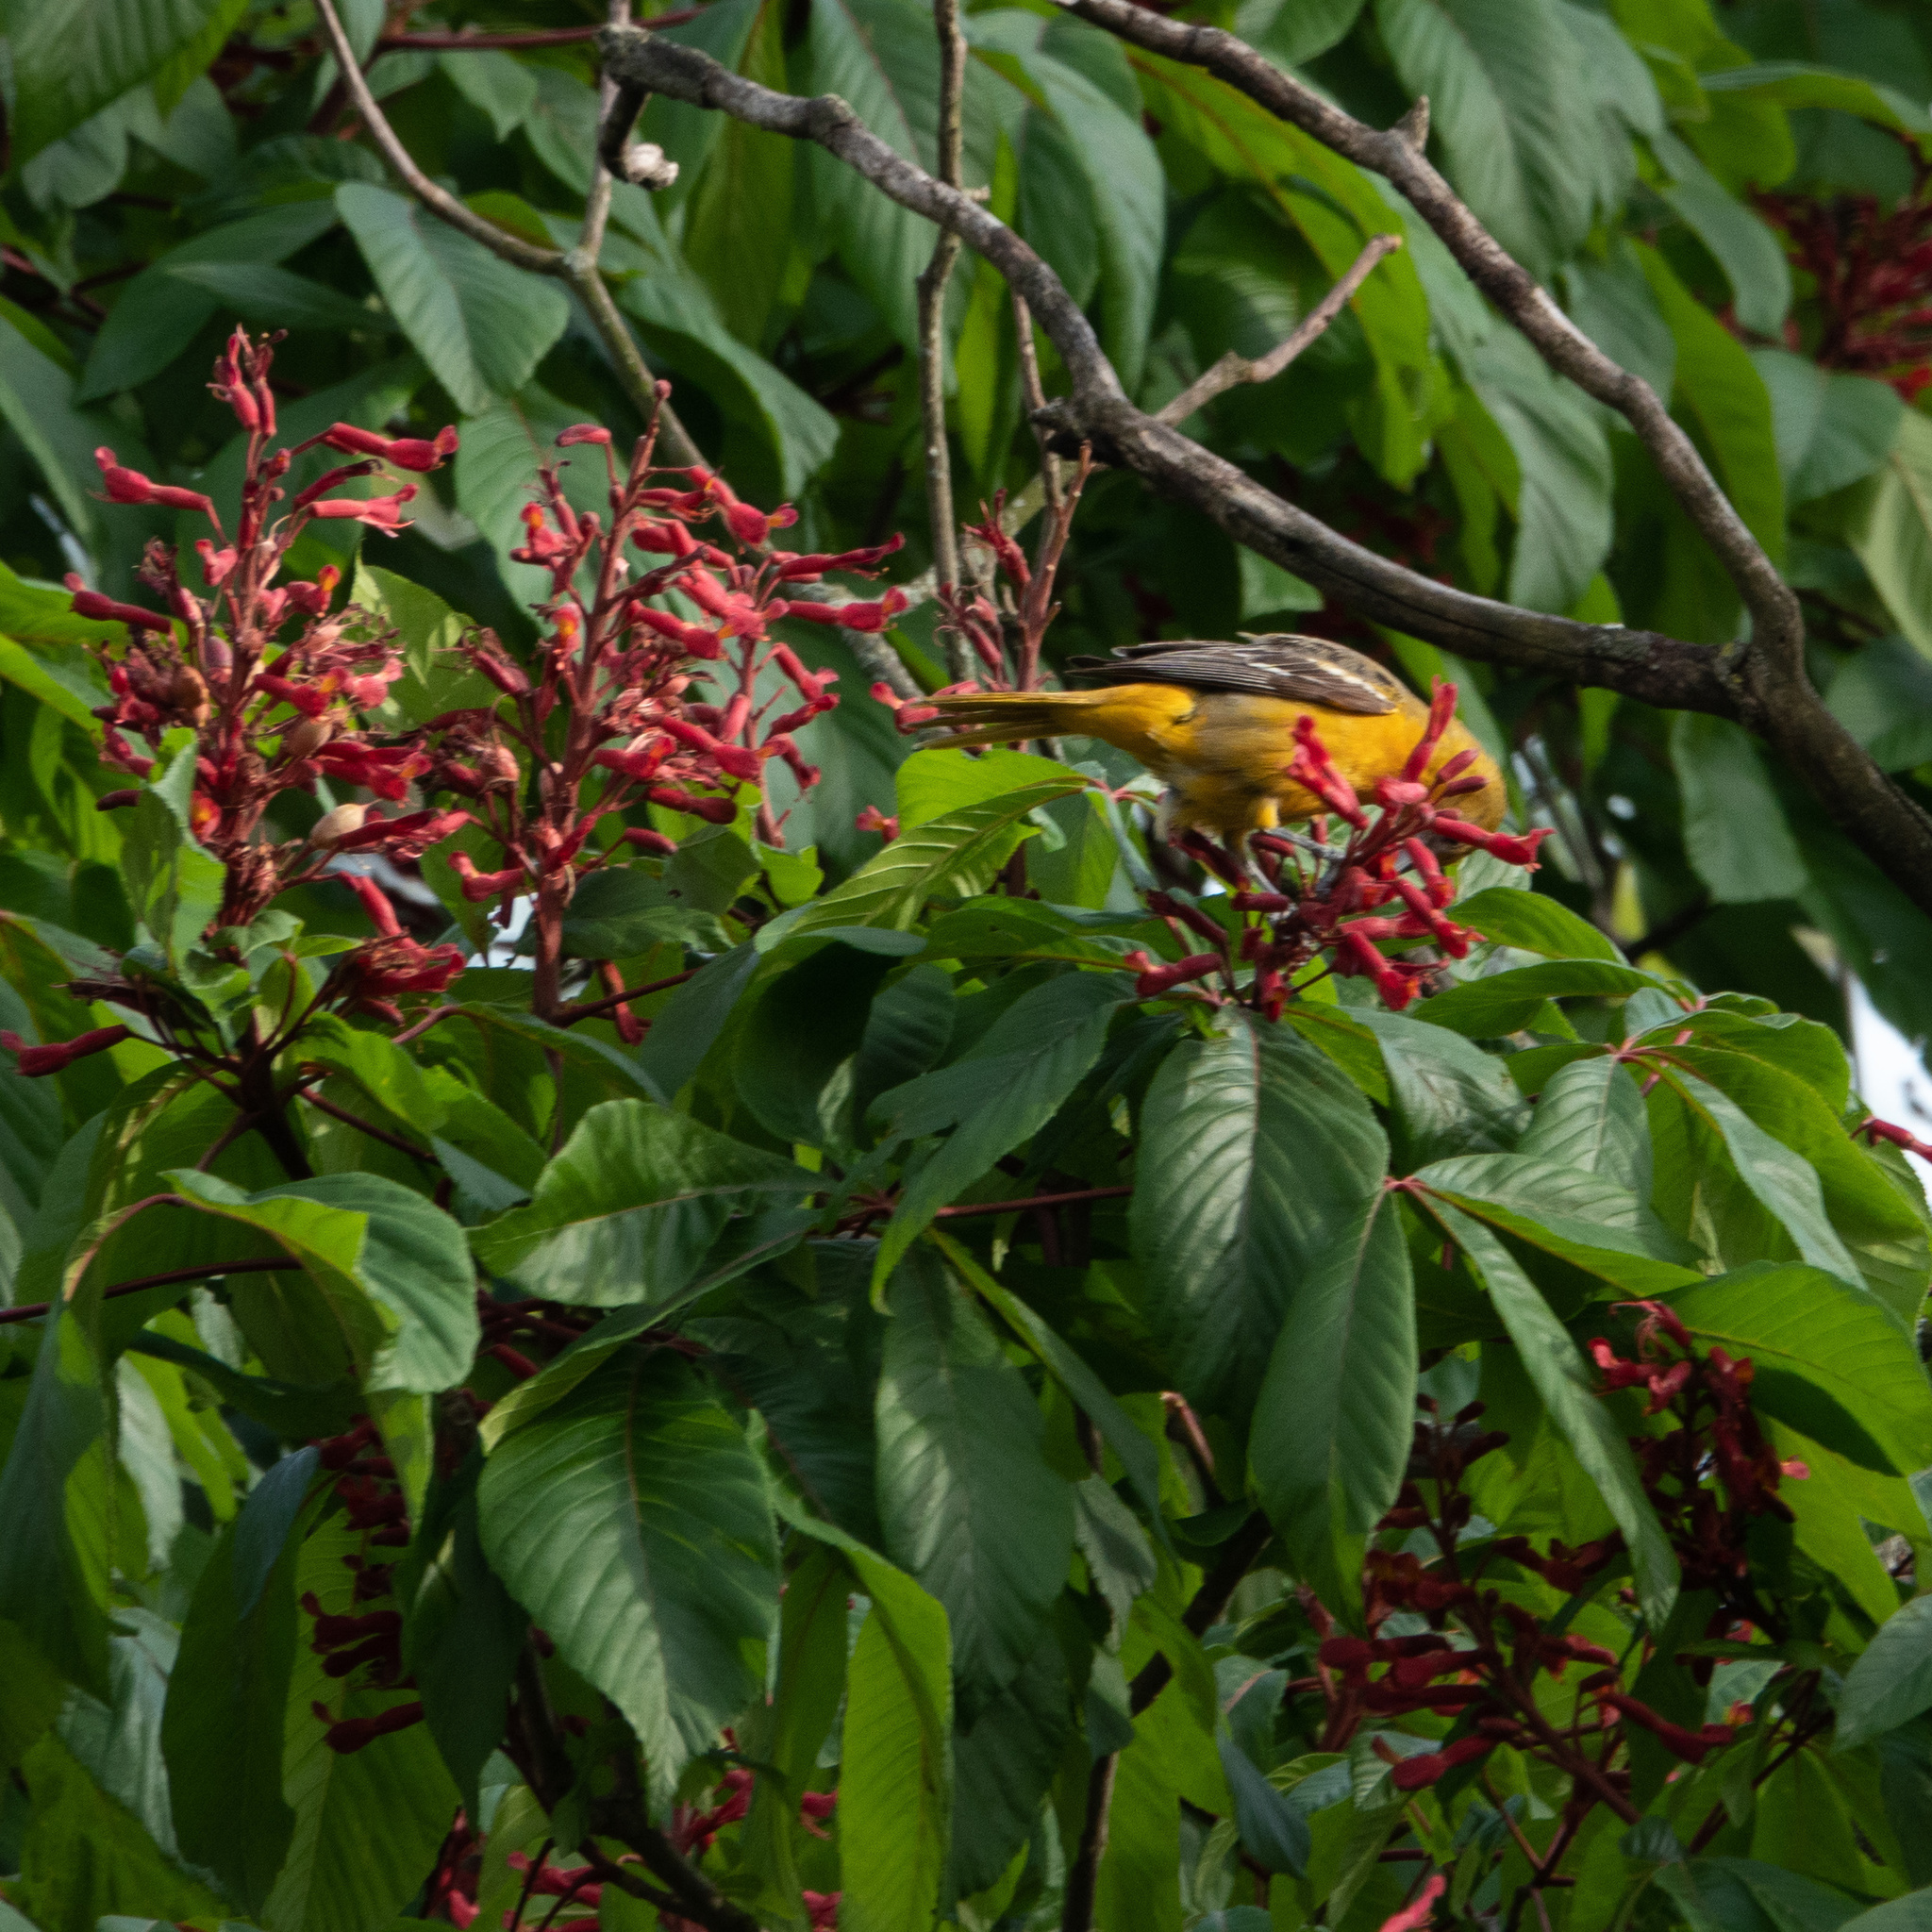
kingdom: Animalia
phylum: Chordata
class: Aves
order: Passeriformes
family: Icteridae
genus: Icterus
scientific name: Icterus galbula
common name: Baltimore oriole
